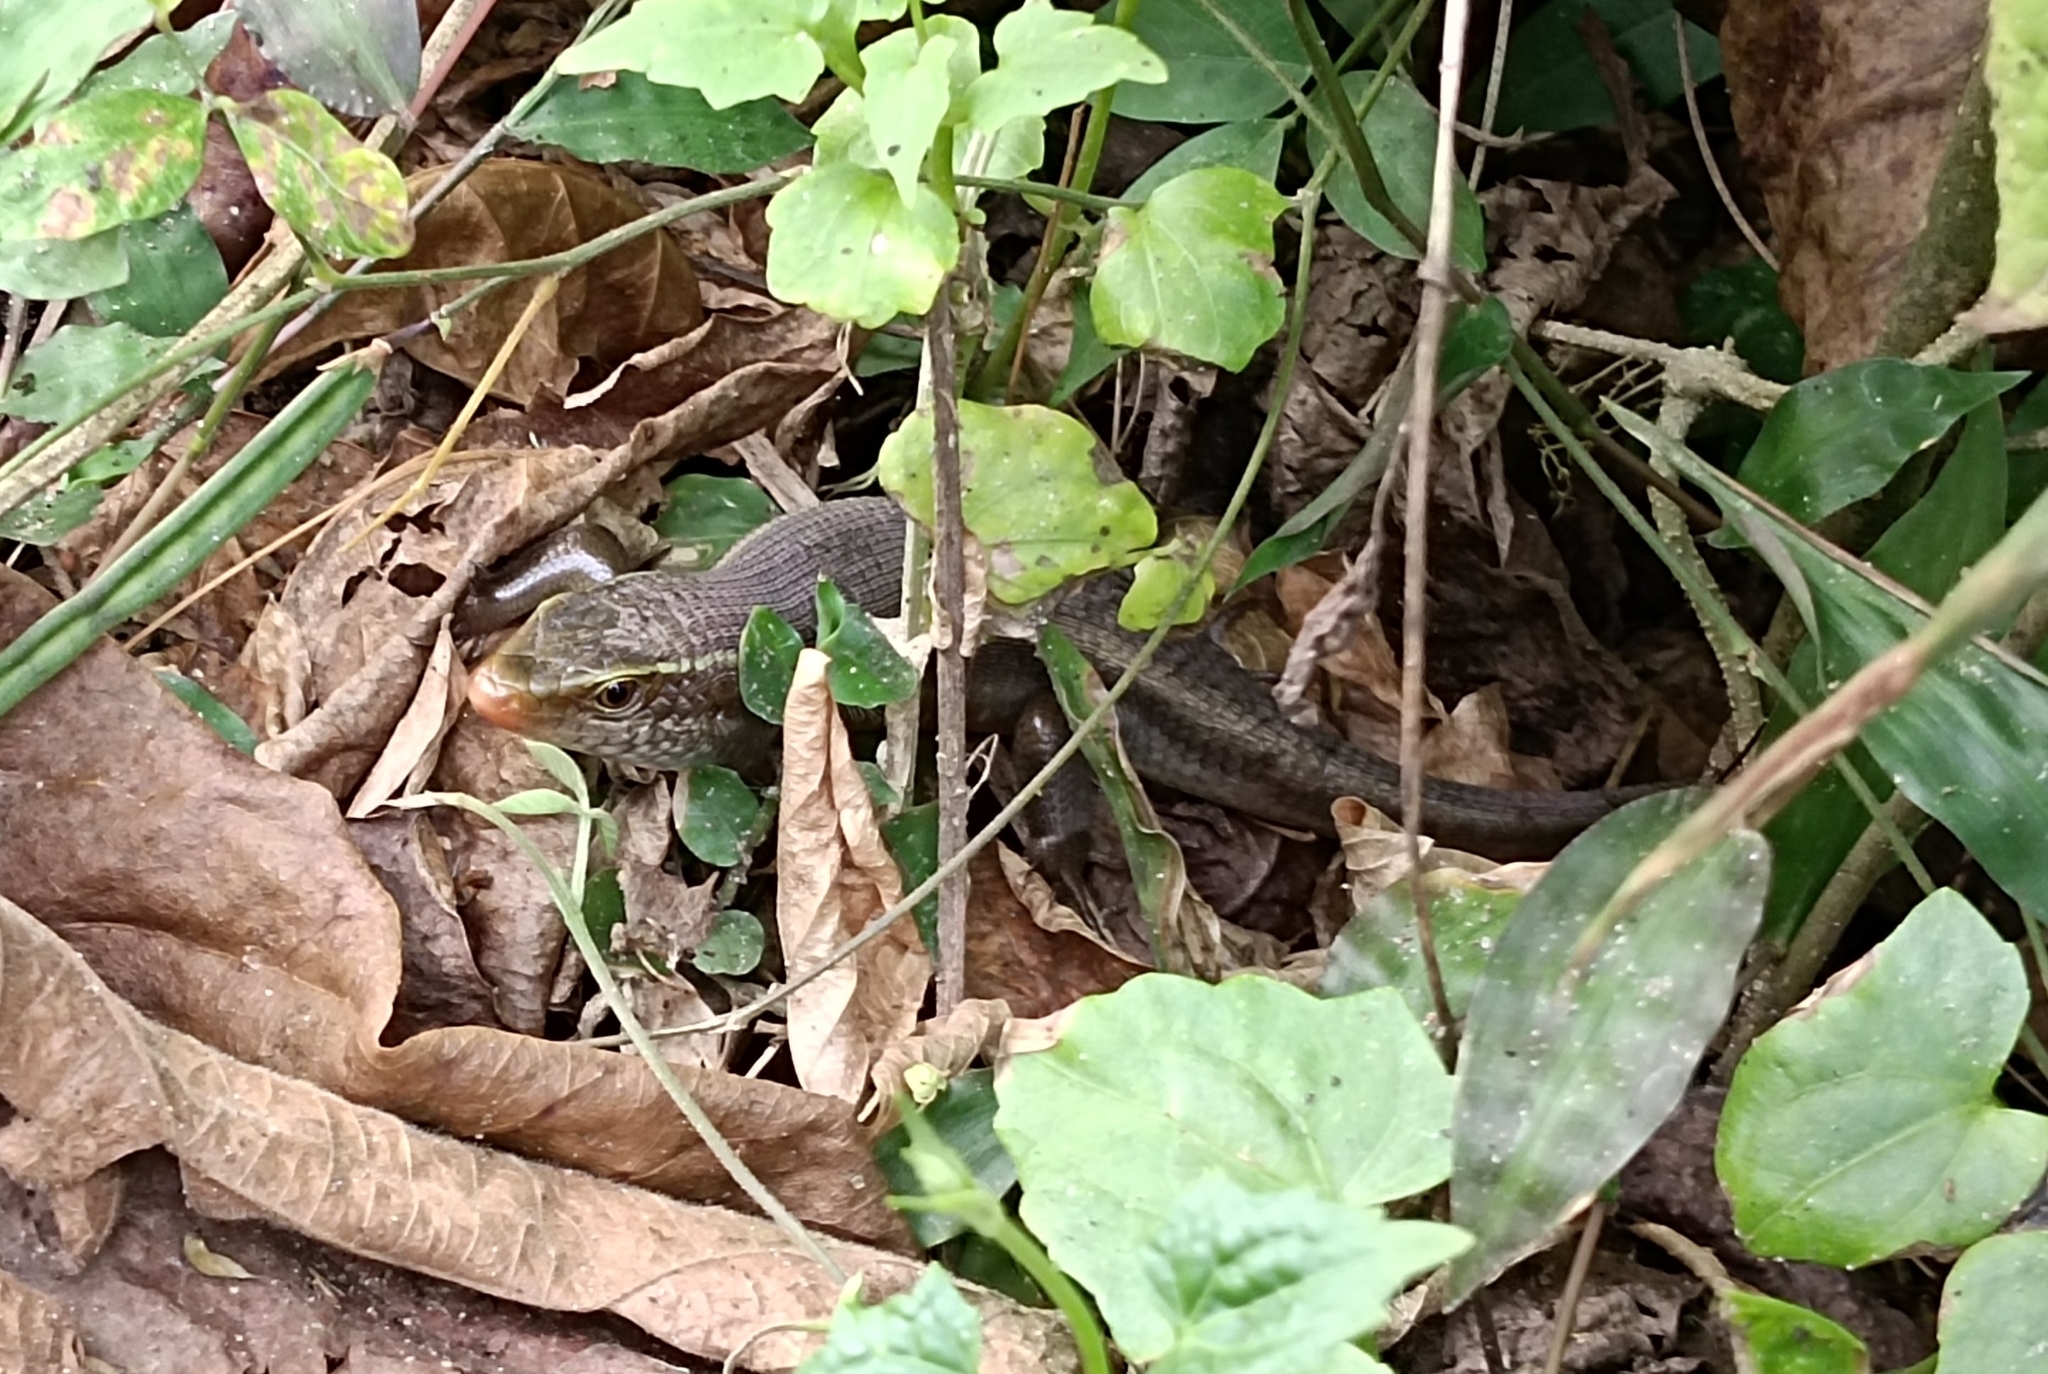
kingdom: Animalia
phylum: Chordata
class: Squamata
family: Scincidae
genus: Eutropis
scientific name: Eutropis carinata
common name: Keeled indian mabuya
